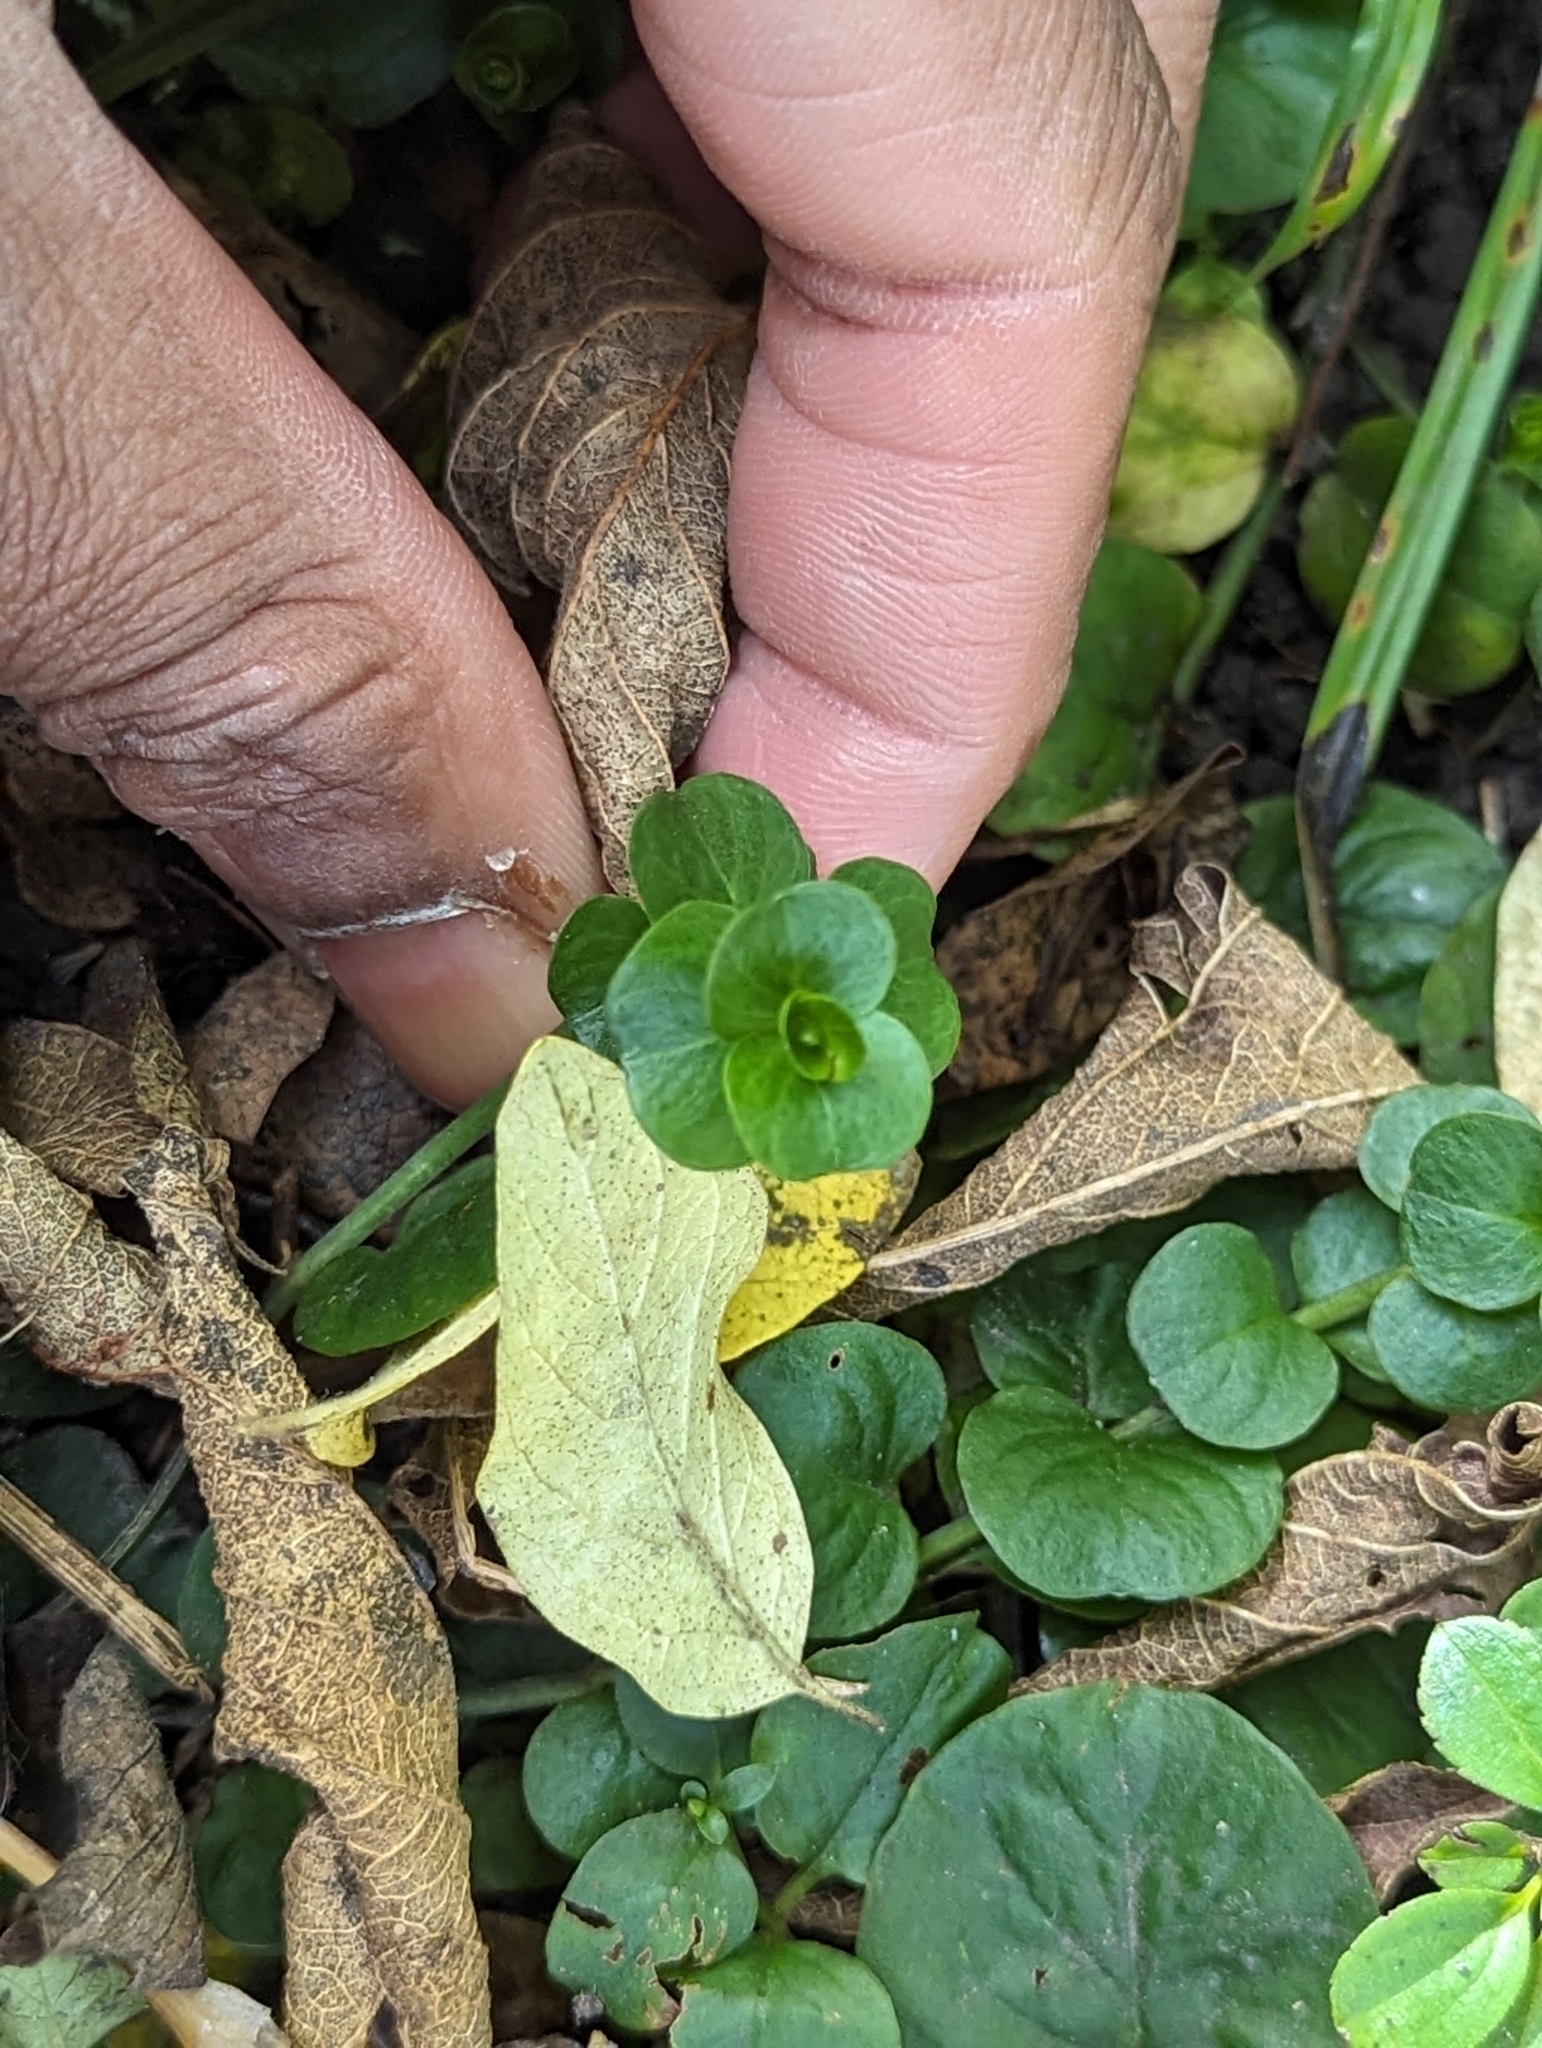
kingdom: Plantae
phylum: Tracheophyta
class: Magnoliopsida
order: Ericales
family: Primulaceae
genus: Lysimachia
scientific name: Lysimachia nummularia
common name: Moneywort
